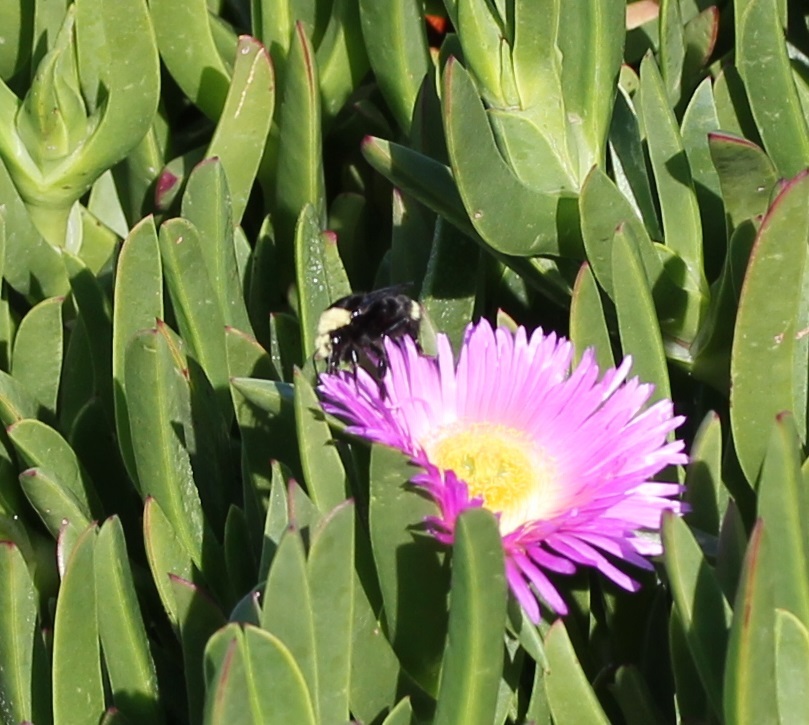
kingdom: Animalia
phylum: Arthropoda
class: Insecta
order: Hymenoptera
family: Apidae
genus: Bombus
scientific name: Bombus vosnesenskii
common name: Vosnesensky bumble bee
